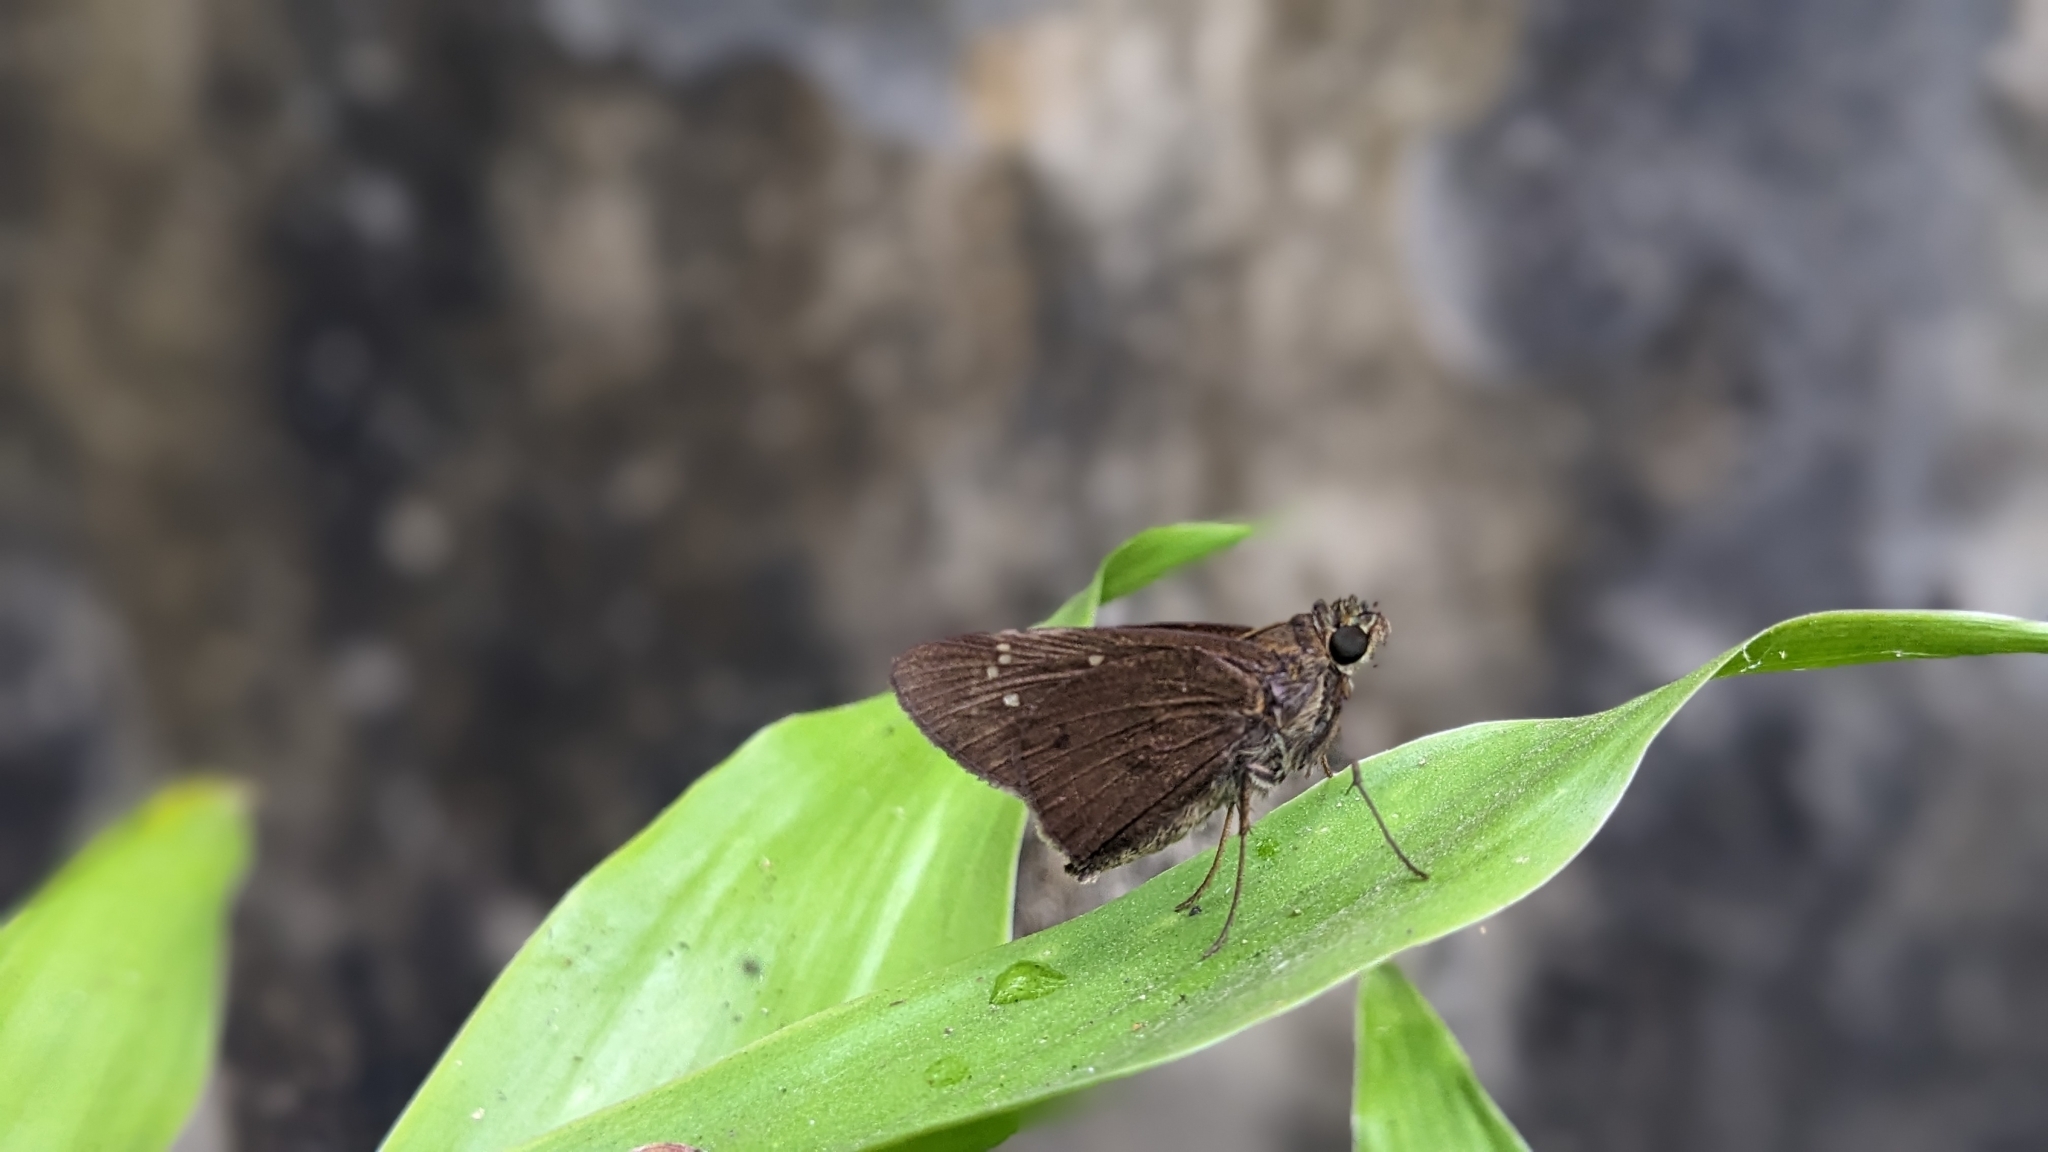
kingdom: Animalia
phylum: Arthropoda
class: Insecta
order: Lepidoptera
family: Hesperiidae
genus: Baoris
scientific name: Baoris farri
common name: Paintbrush swift
